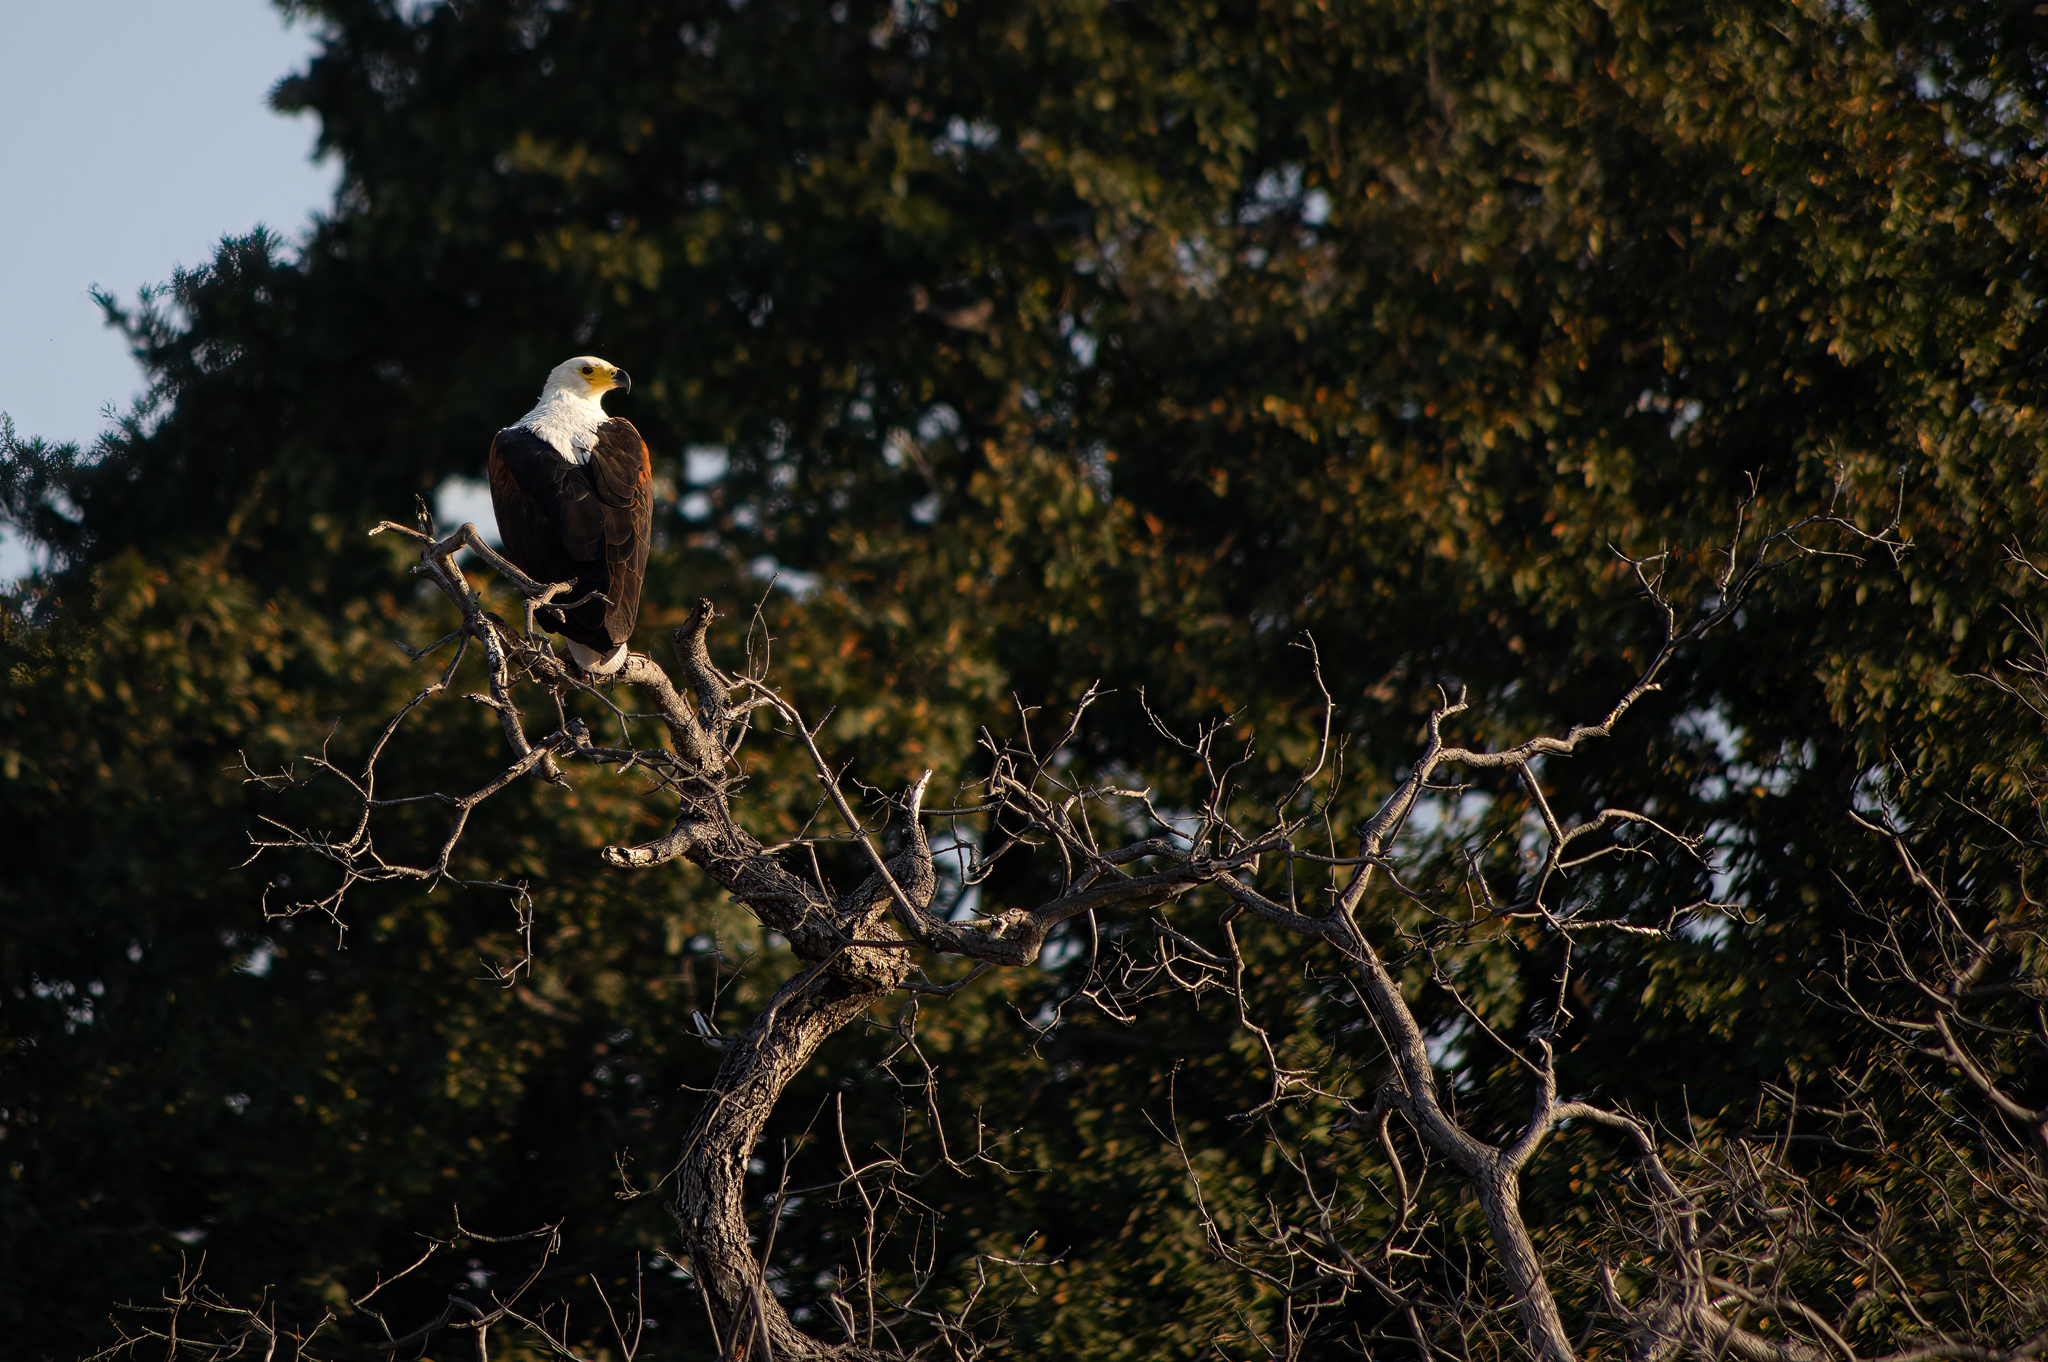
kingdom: Animalia
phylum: Chordata
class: Aves
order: Accipitriformes
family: Accipitridae
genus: Haliaeetus
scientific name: Haliaeetus vocifer
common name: African fish eagle
